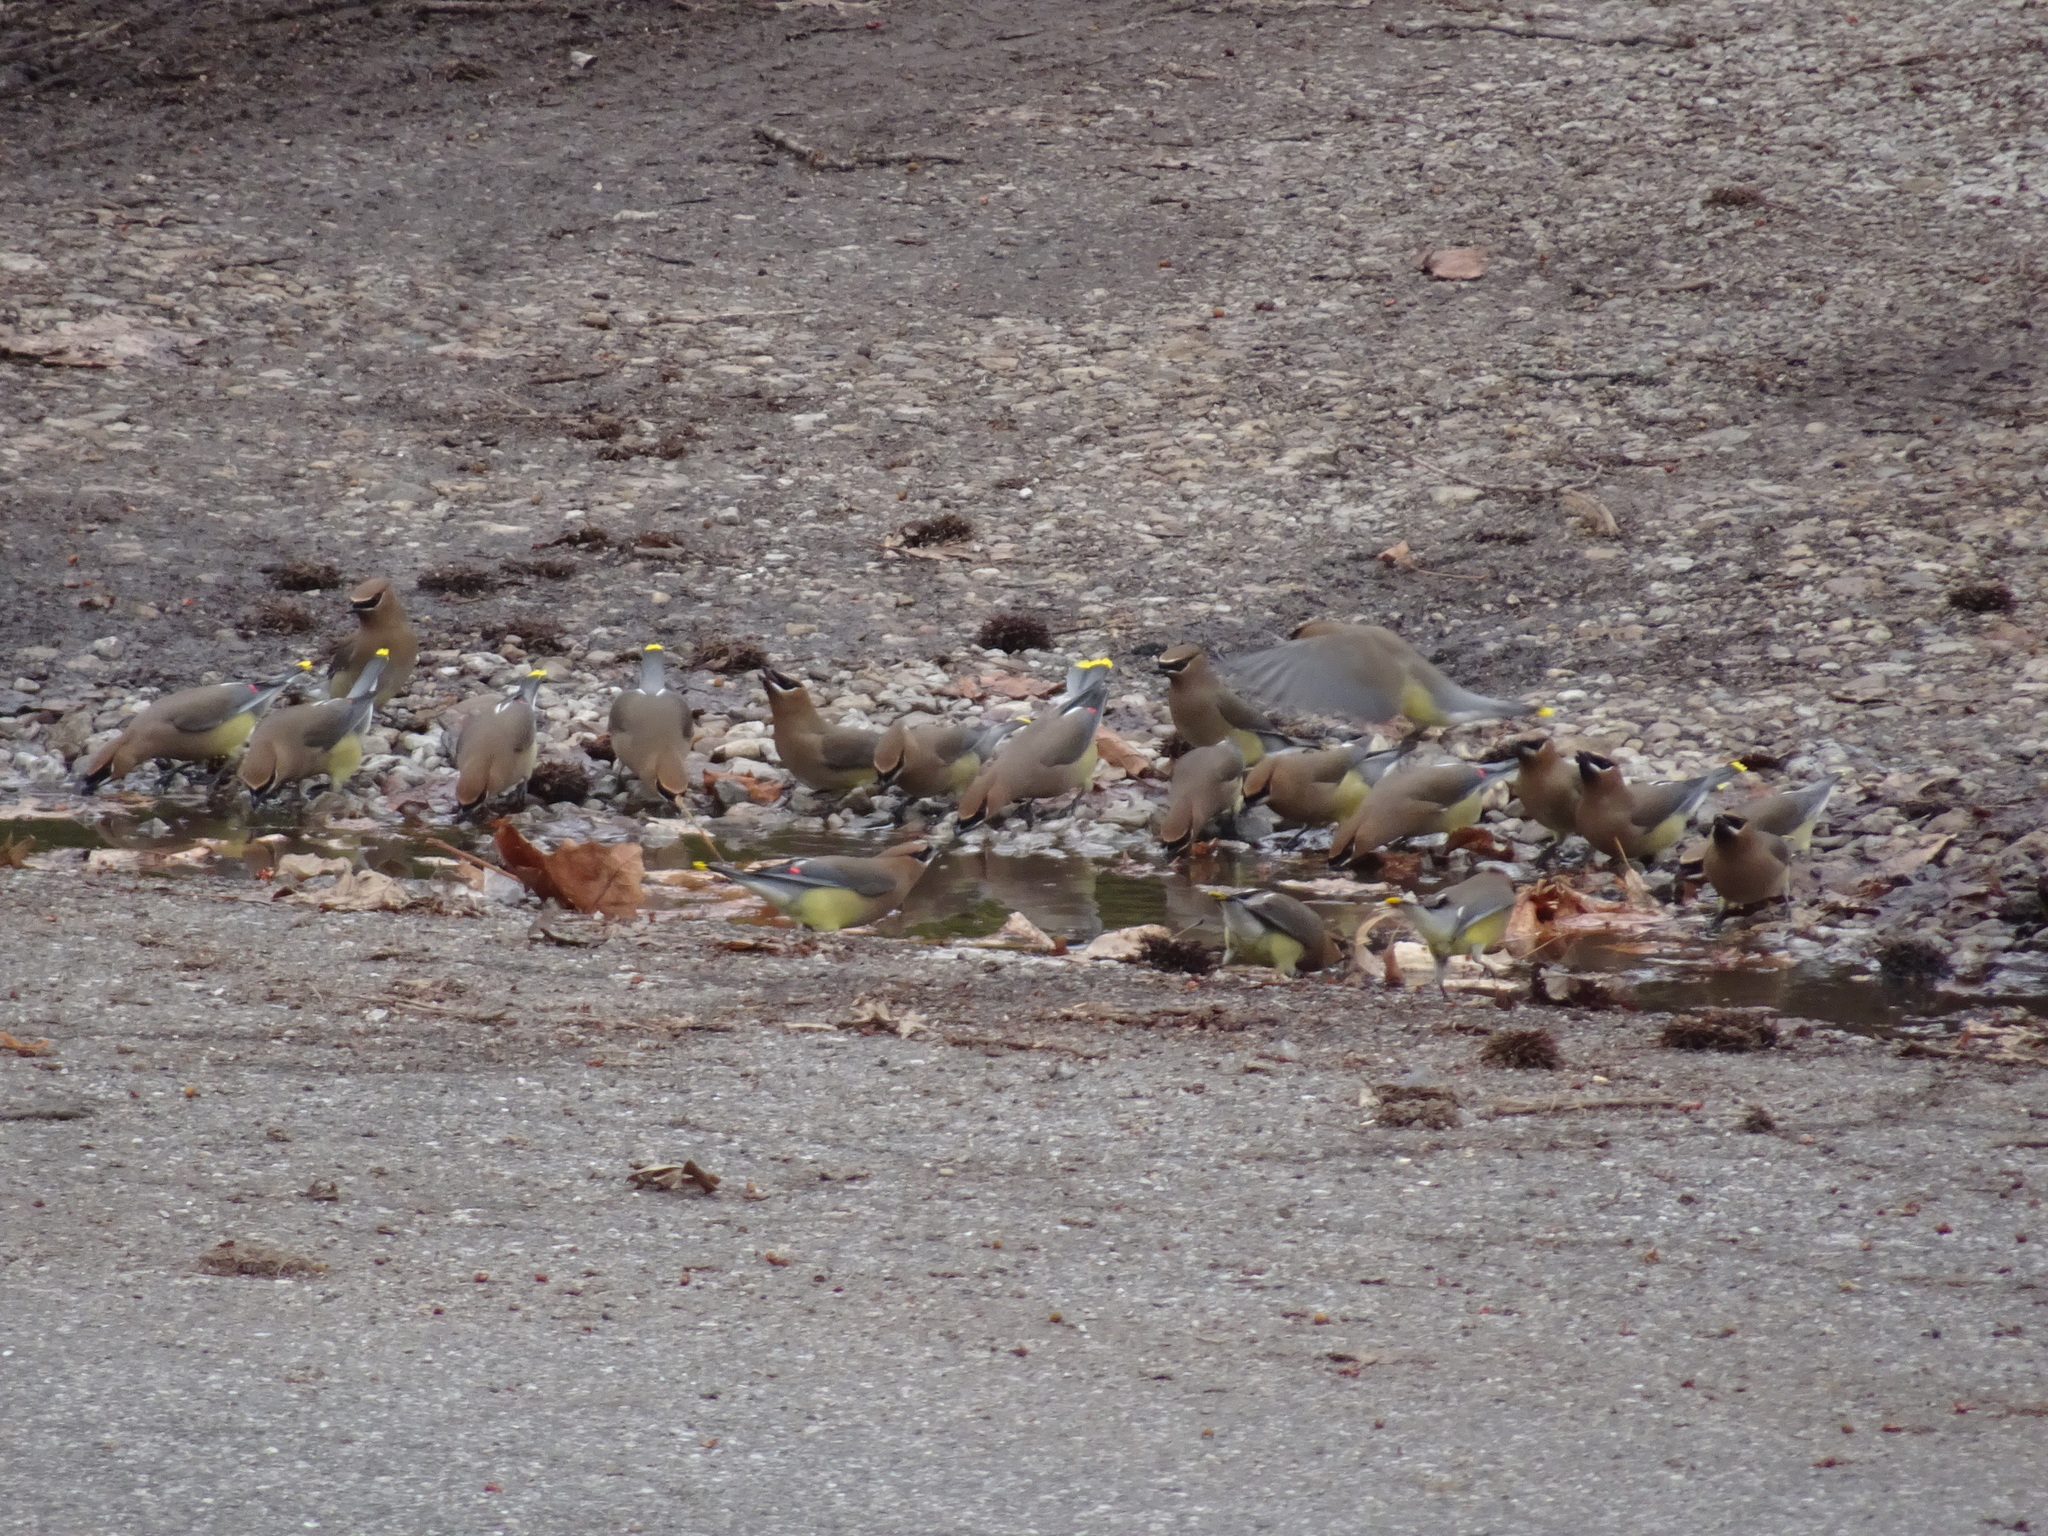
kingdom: Animalia
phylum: Chordata
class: Aves
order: Passeriformes
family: Bombycillidae
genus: Bombycilla
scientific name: Bombycilla cedrorum
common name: Cedar waxwing
